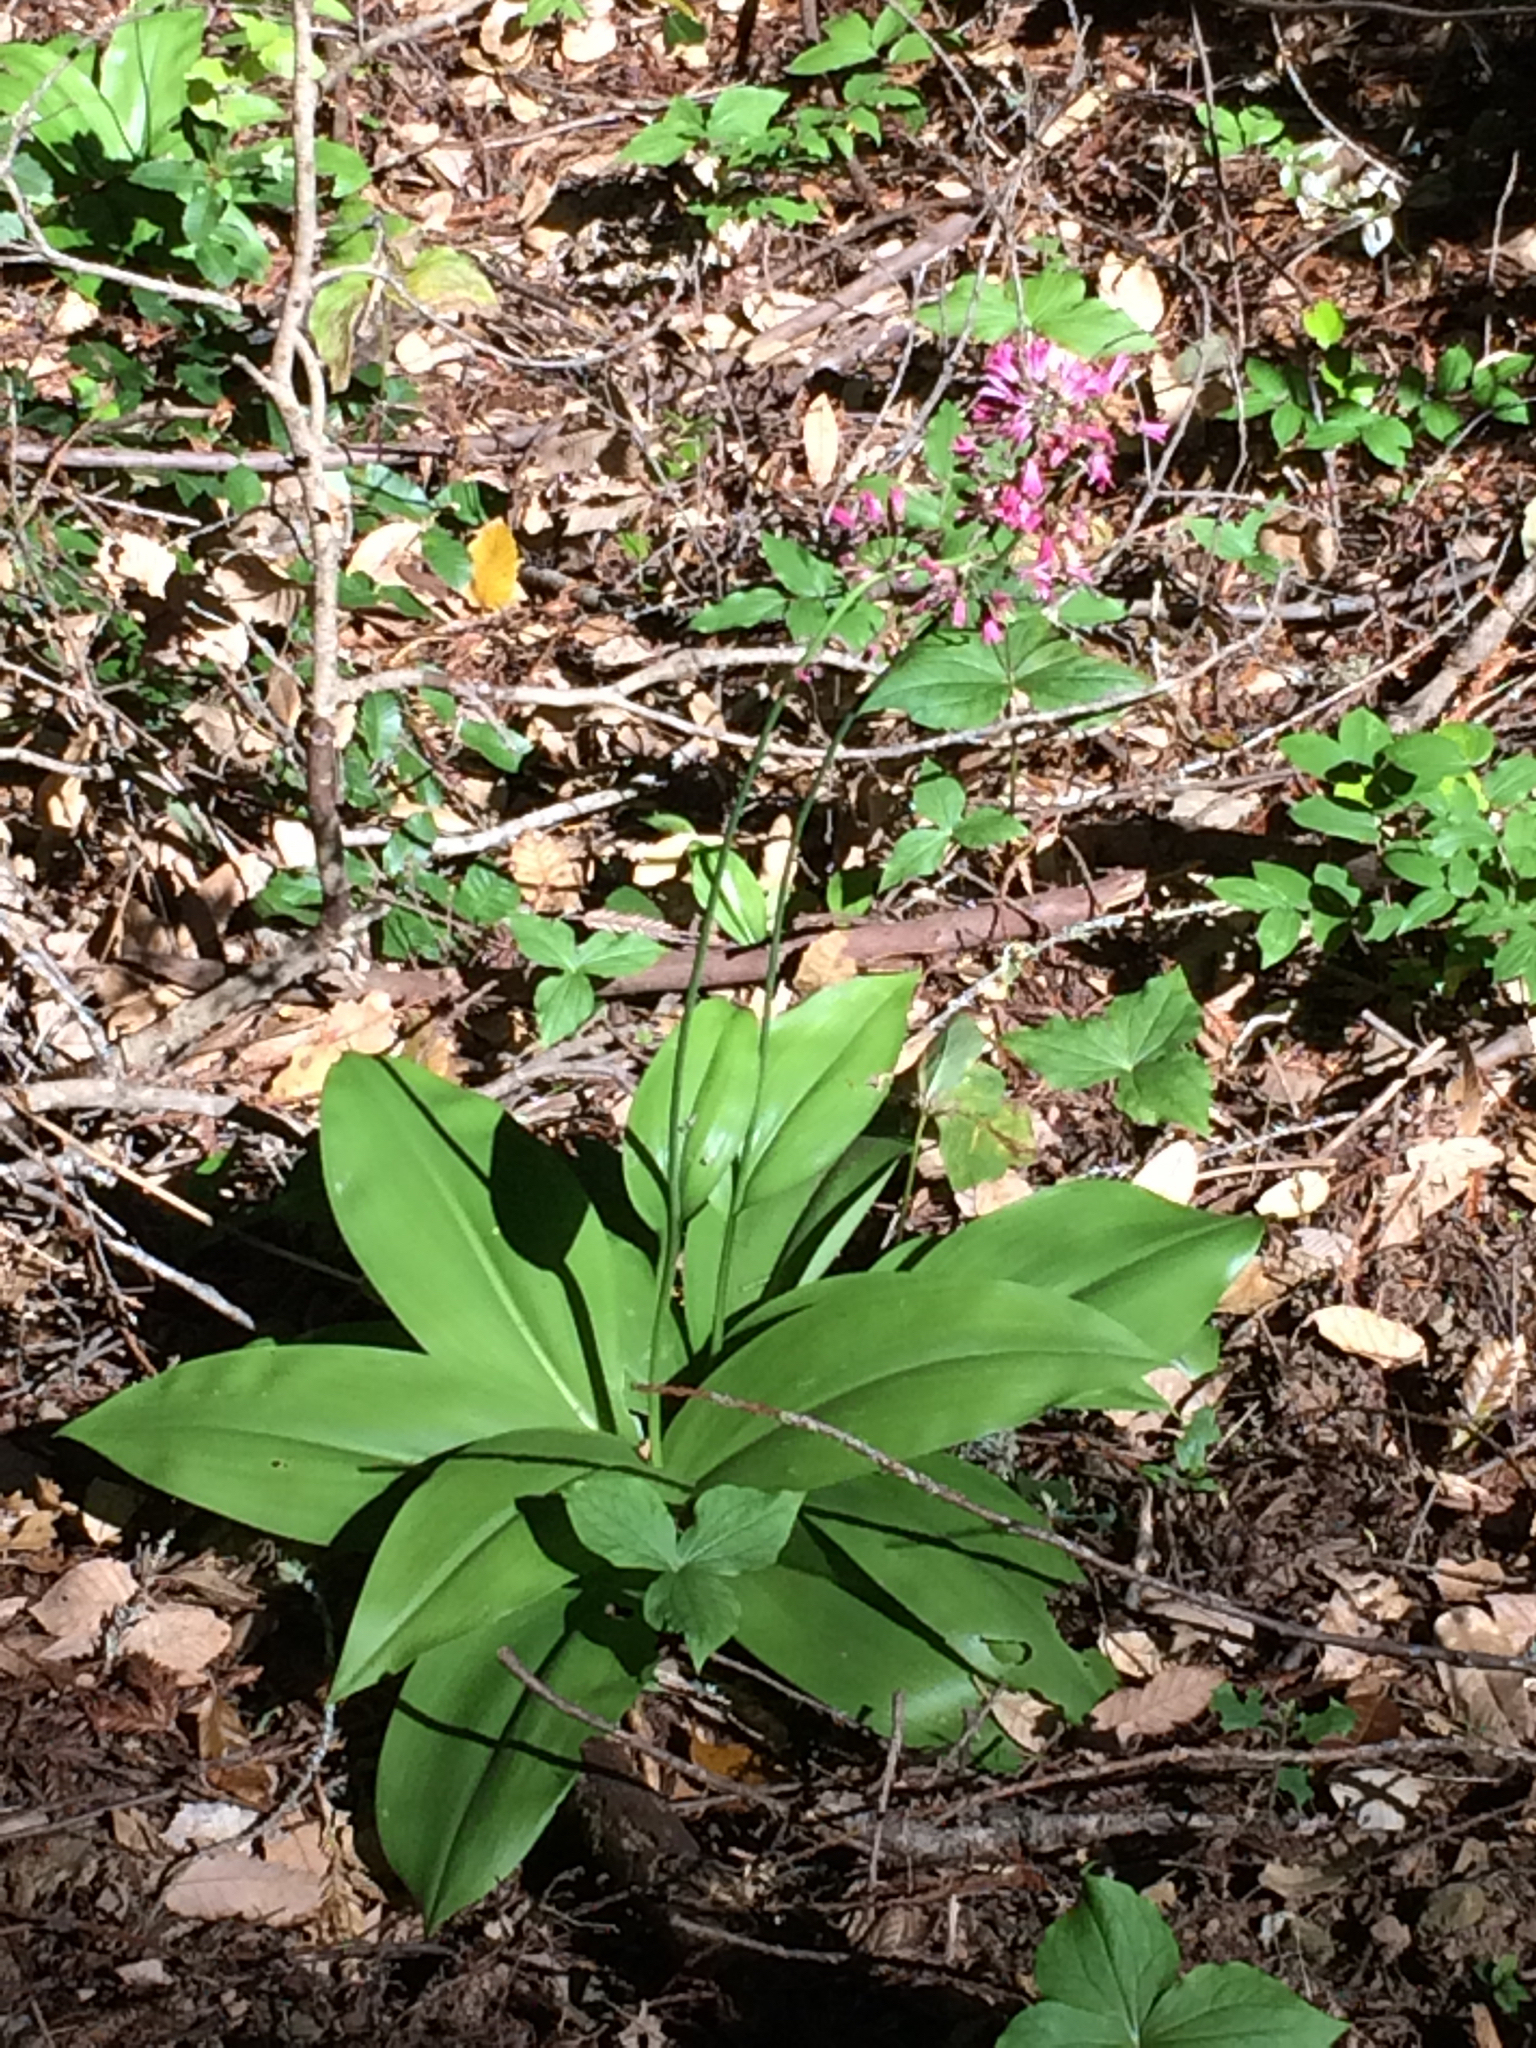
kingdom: Plantae
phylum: Tracheophyta
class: Liliopsida
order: Liliales
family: Liliaceae
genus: Clintonia
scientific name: Clintonia andrewsiana
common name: Red clintonia
